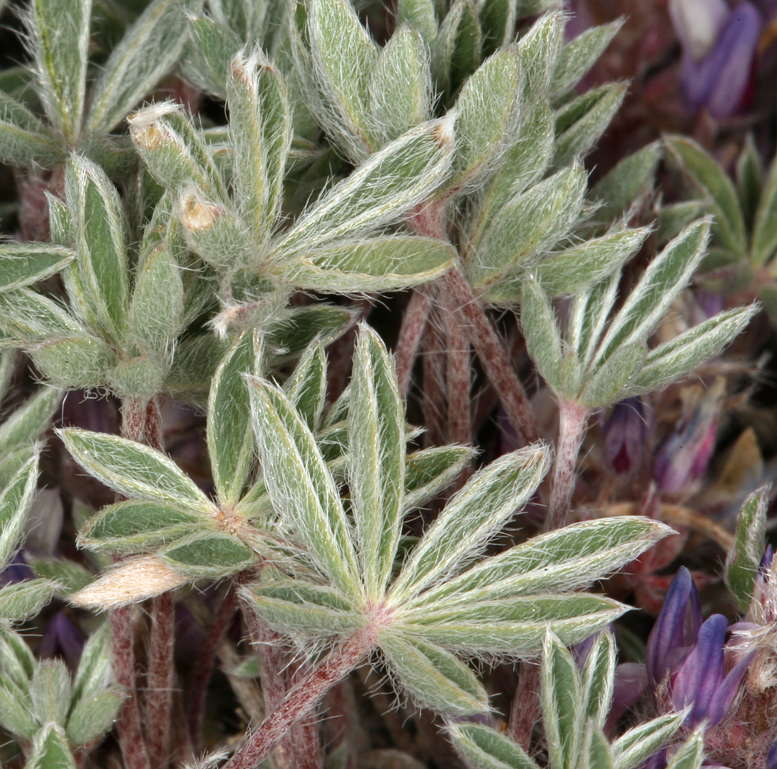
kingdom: Plantae
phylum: Tracheophyta
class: Magnoliopsida
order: Fabales
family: Fabaceae
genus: Lupinus
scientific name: Lupinus lepidus
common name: Prairie lupine
